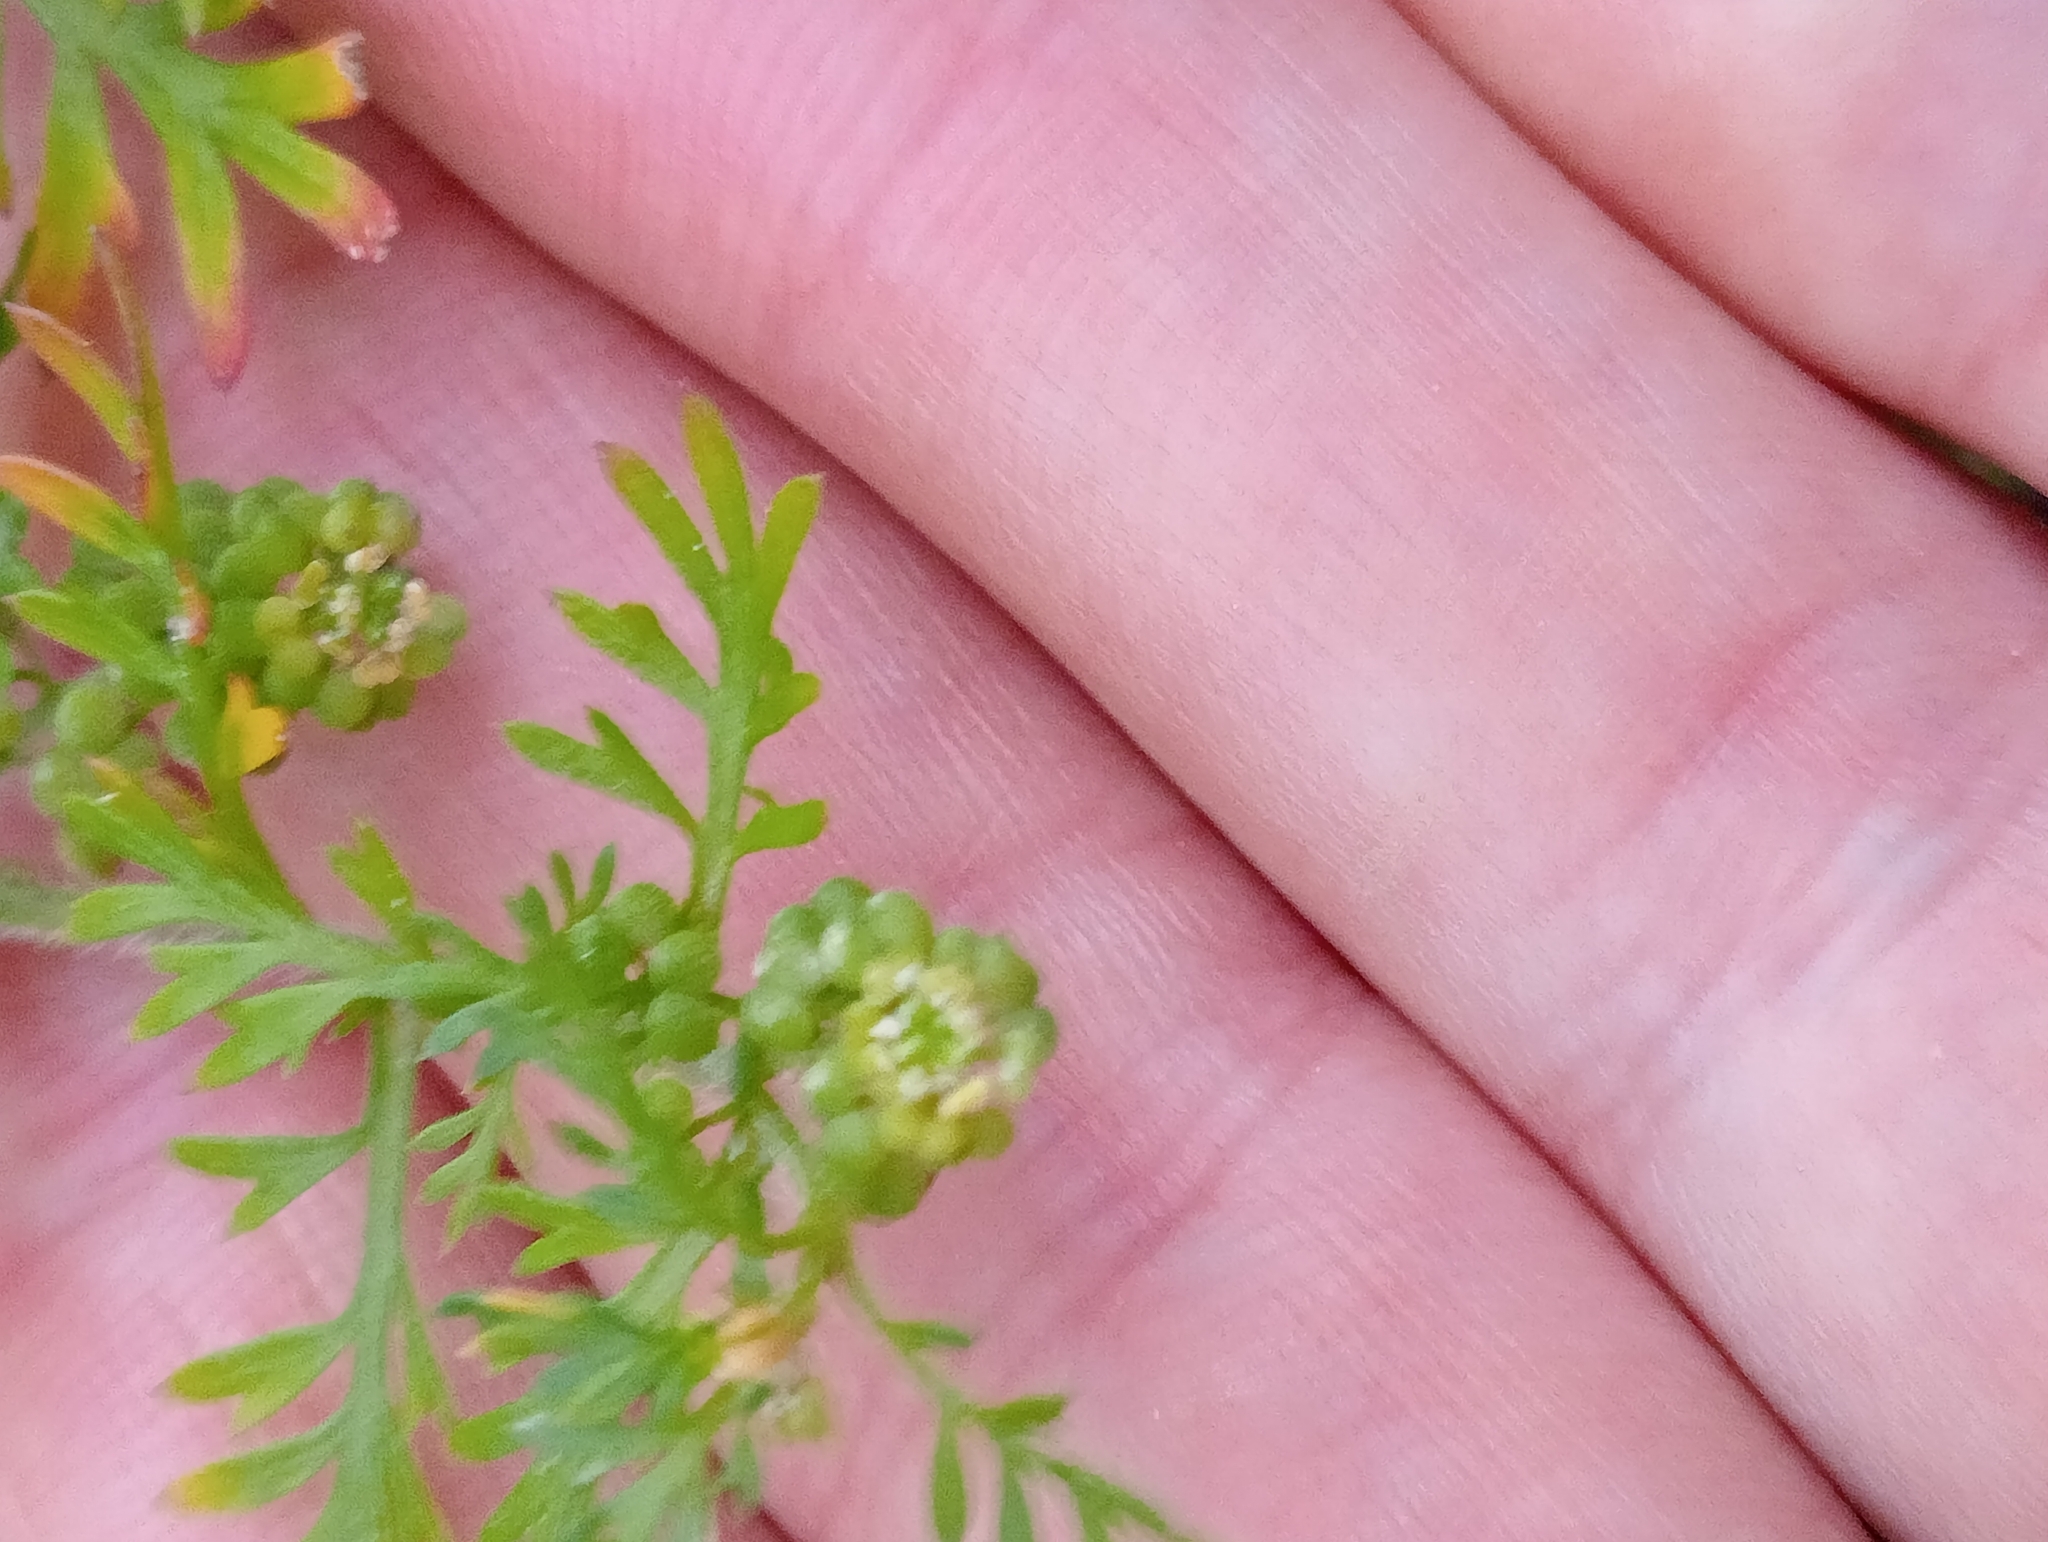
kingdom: Plantae
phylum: Tracheophyta
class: Magnoliopsida
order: Brassicales
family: Brassicaceae
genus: Lepidium
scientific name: Lepidium didymum
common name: Lesser swinecress
